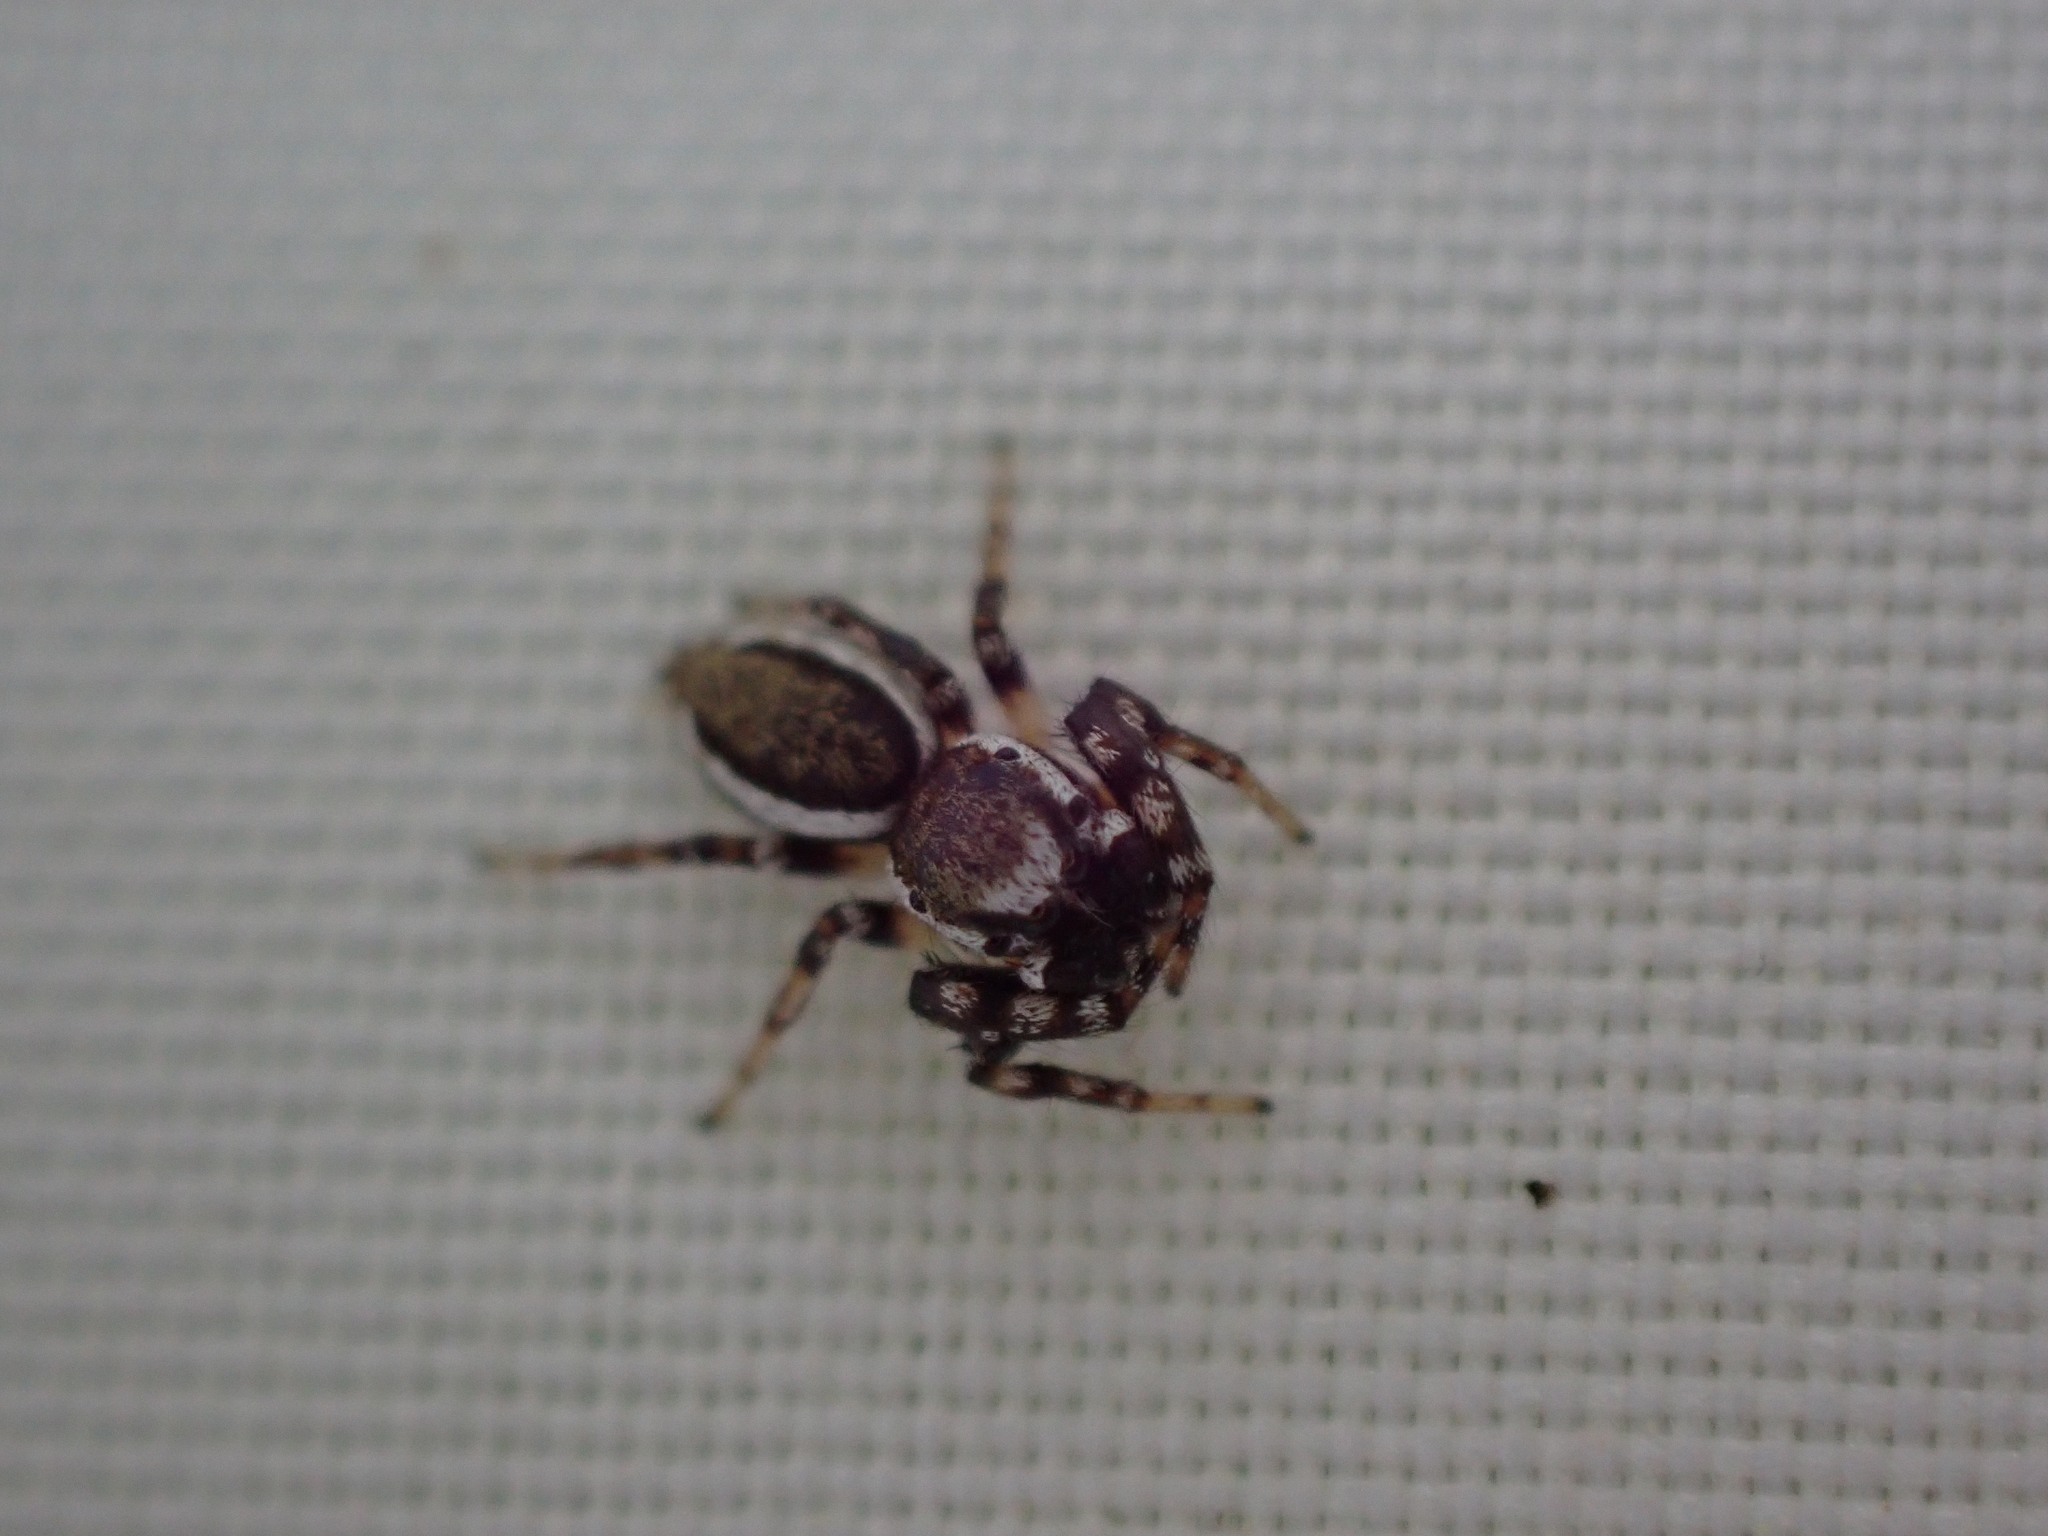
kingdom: Animalia
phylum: Arthropoda
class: Arachnida
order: Araneae
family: Salticidae
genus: Pelegrina
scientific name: Pelegrina proterva
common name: Common white-cheeked jumping spider
